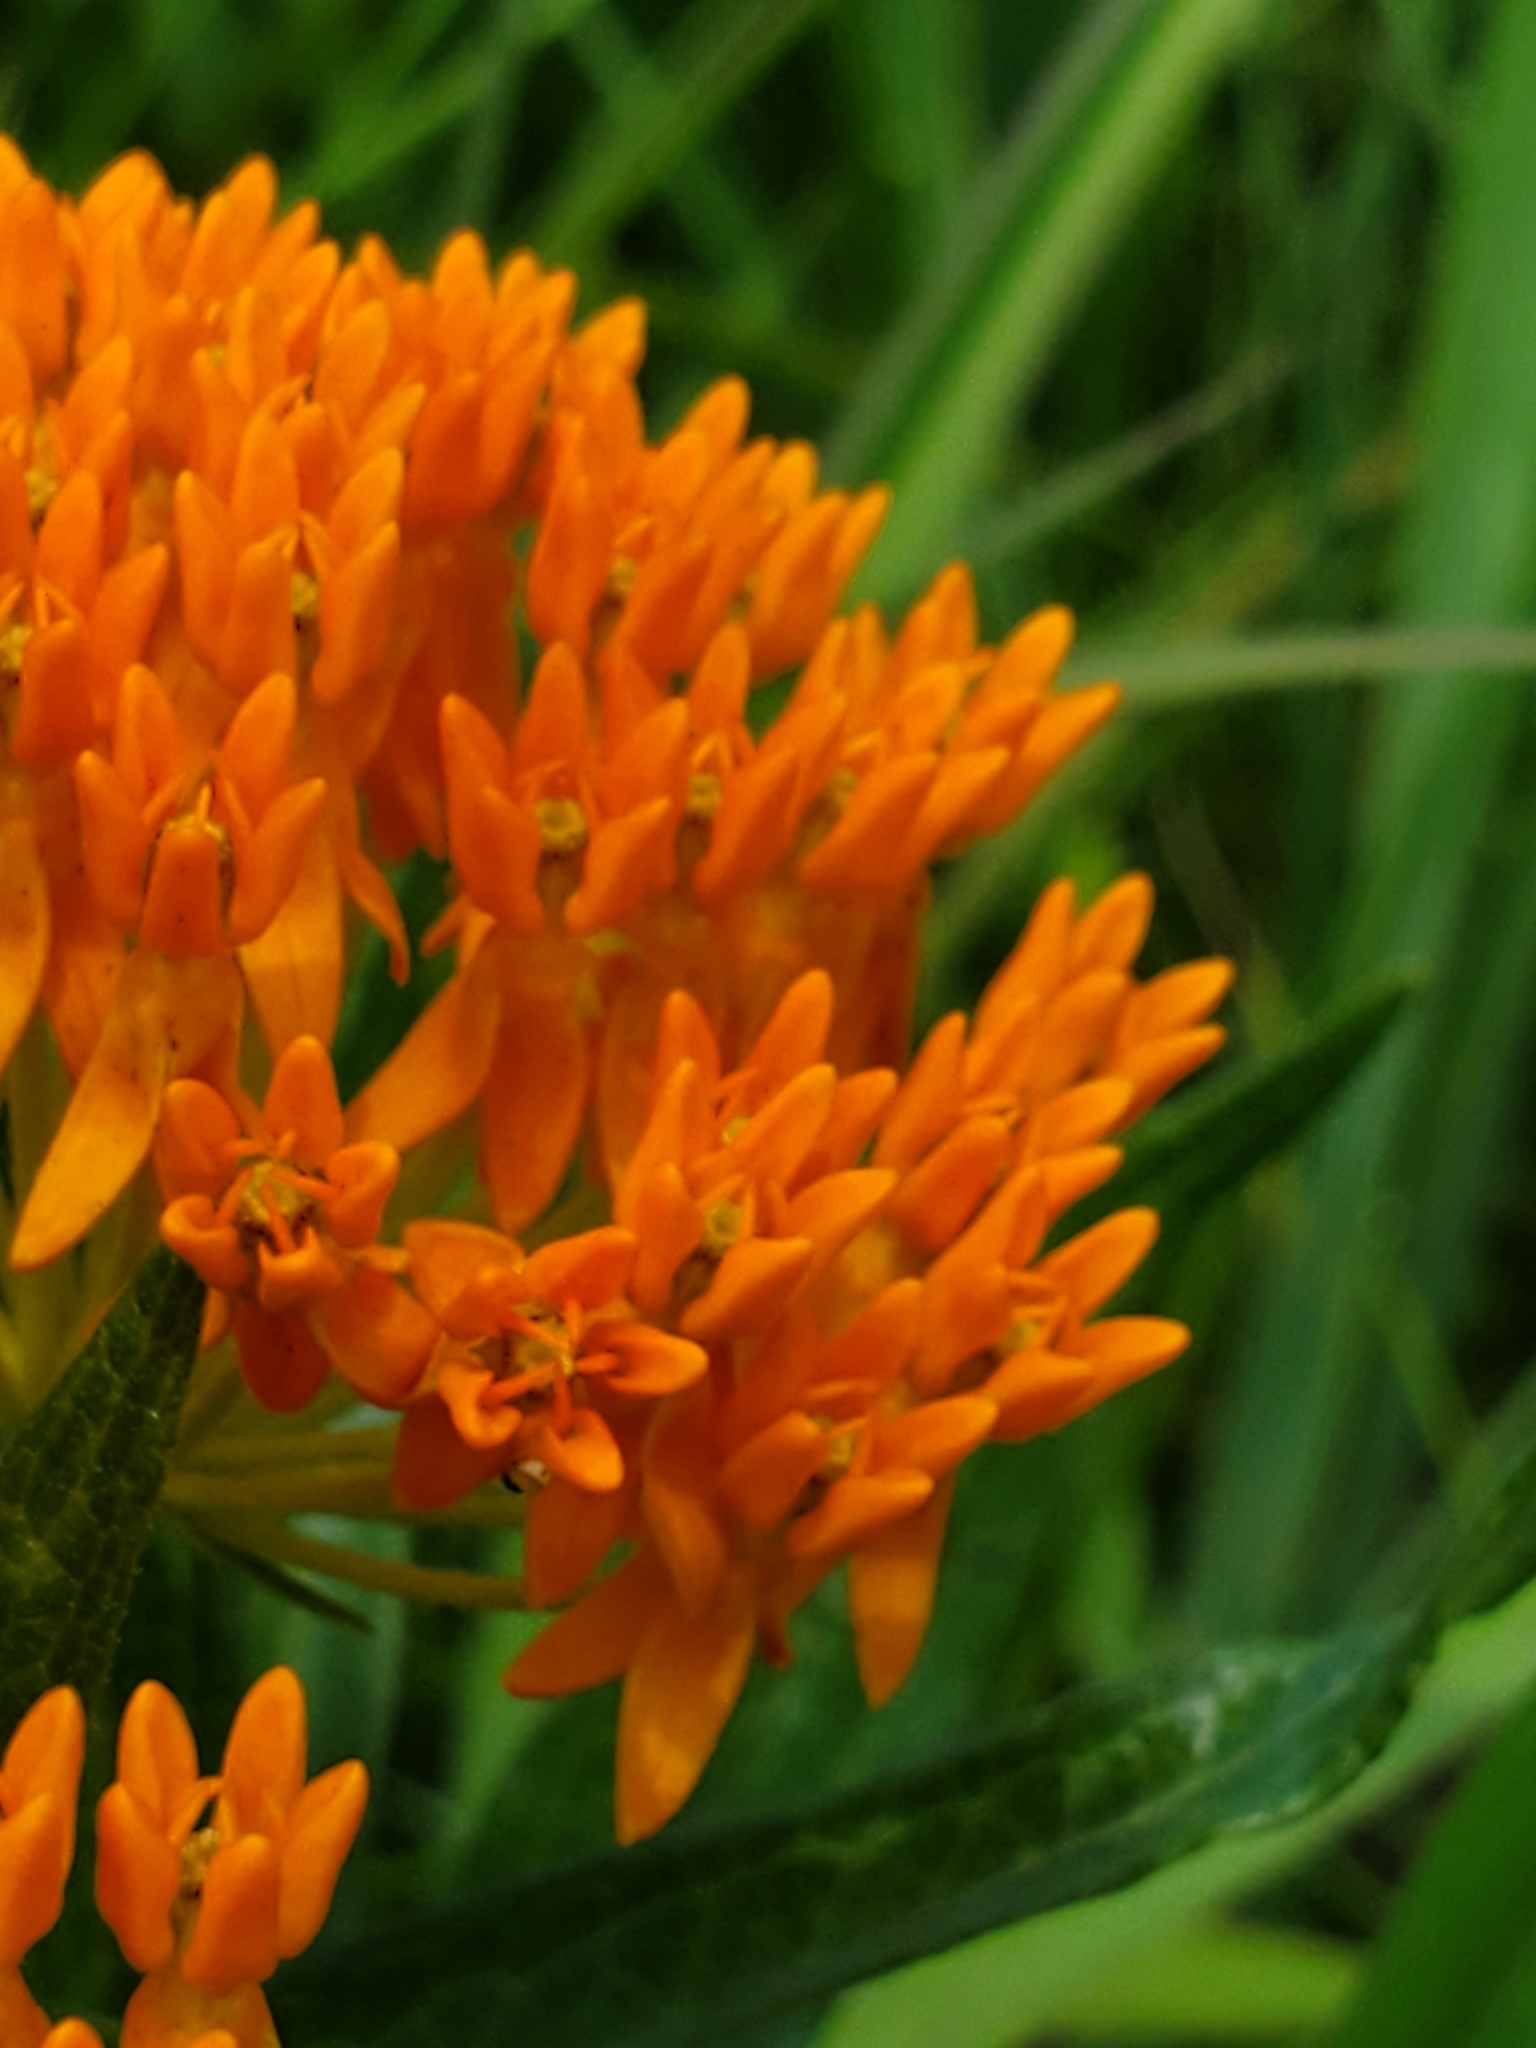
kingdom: Plantae
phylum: Tracheophyta
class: Magnoliopsida
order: Gentianales
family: Apocynaceae
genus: Asclepias
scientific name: Asclepias tuberosa
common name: Butterfly milkweed
